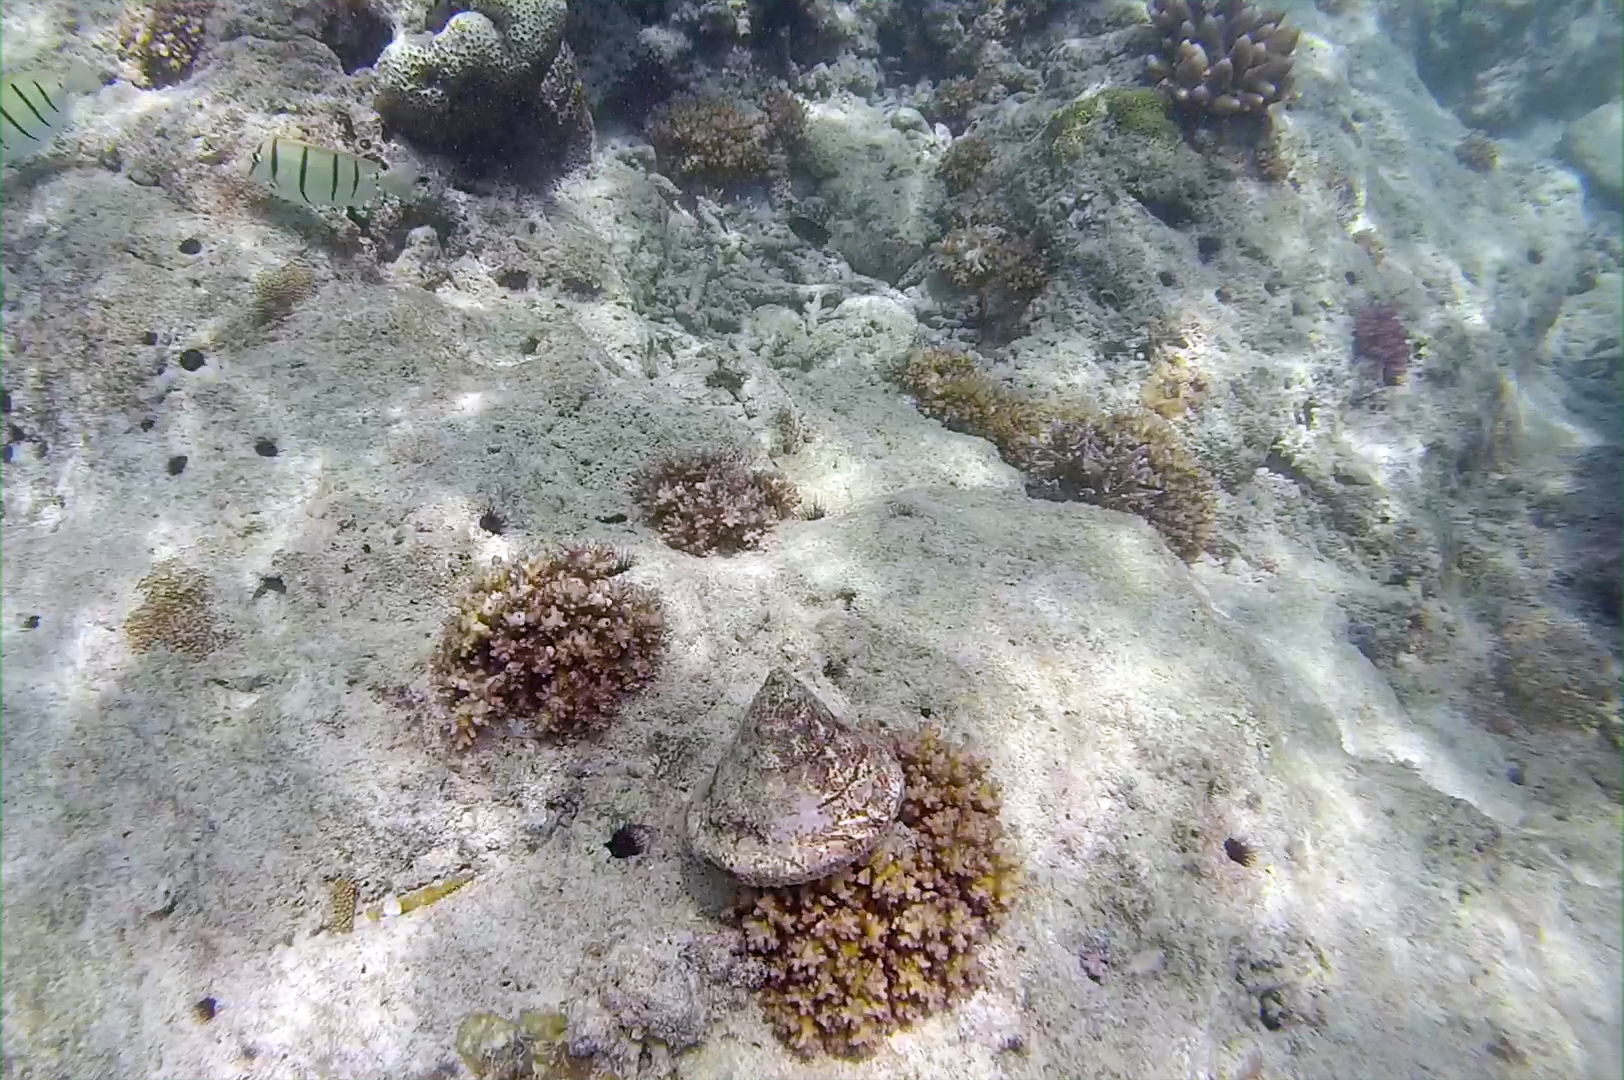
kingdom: Animalia
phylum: Mollusca
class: Gastropoda
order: Trochida
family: Tegulidae
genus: Rochia
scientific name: Rochia nilotica
